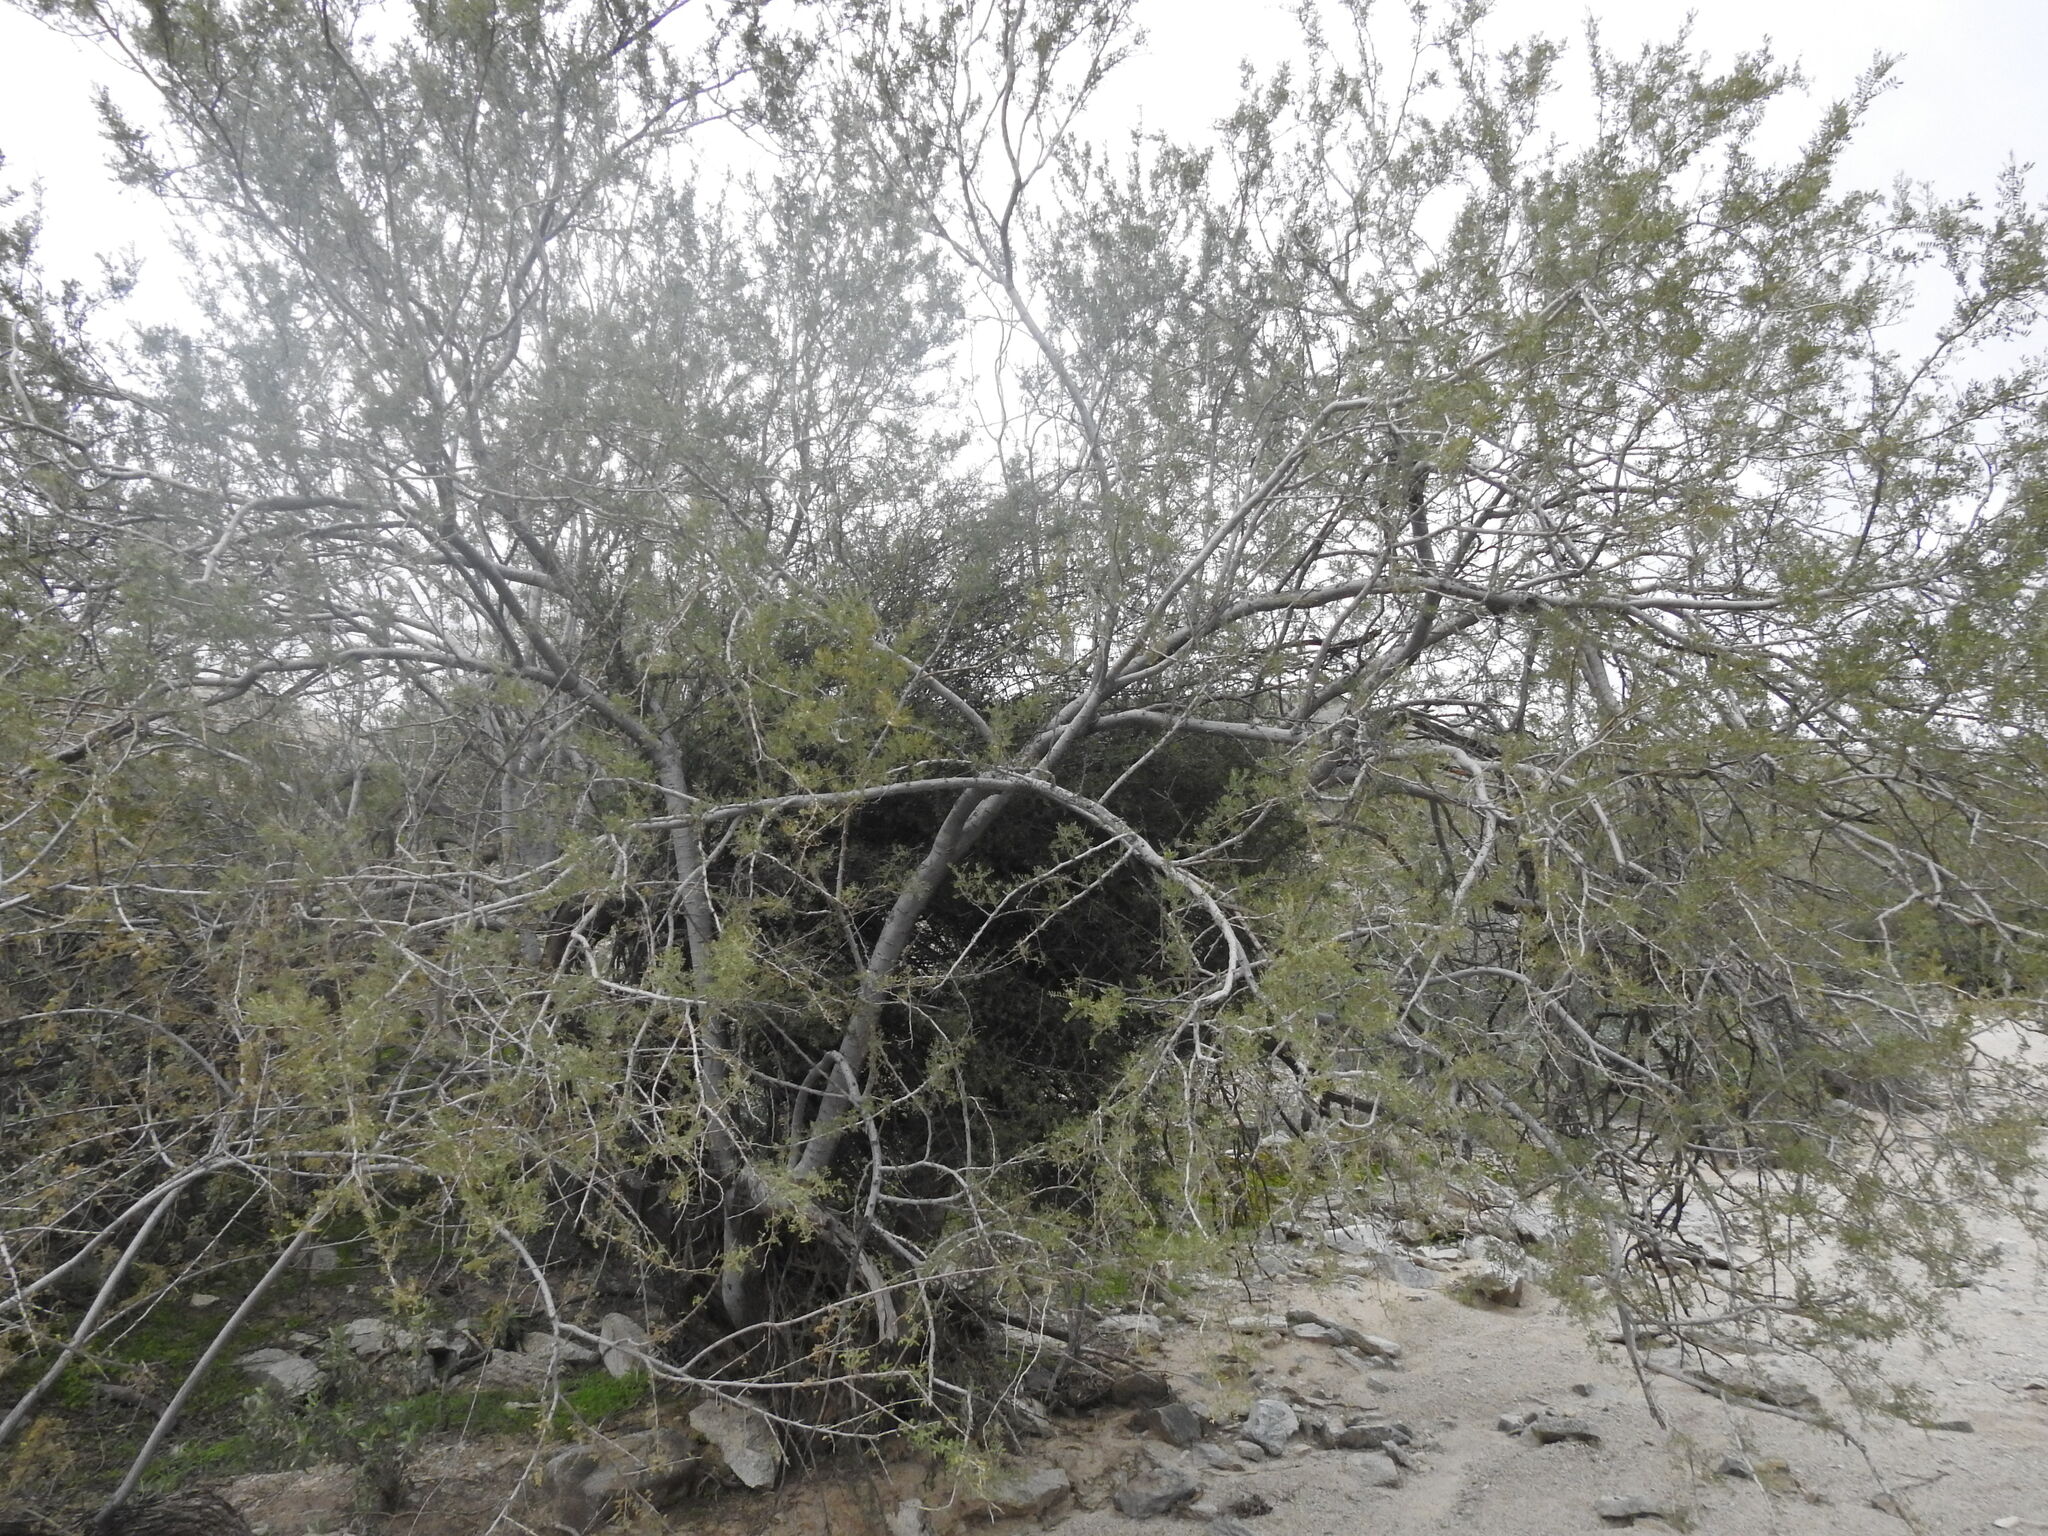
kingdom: Plantae
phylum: Tracheophyta
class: Magnoliopsida
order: Fabales
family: Fabaceae
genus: Olneya
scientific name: Olneya tesota
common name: Desert ironwood
